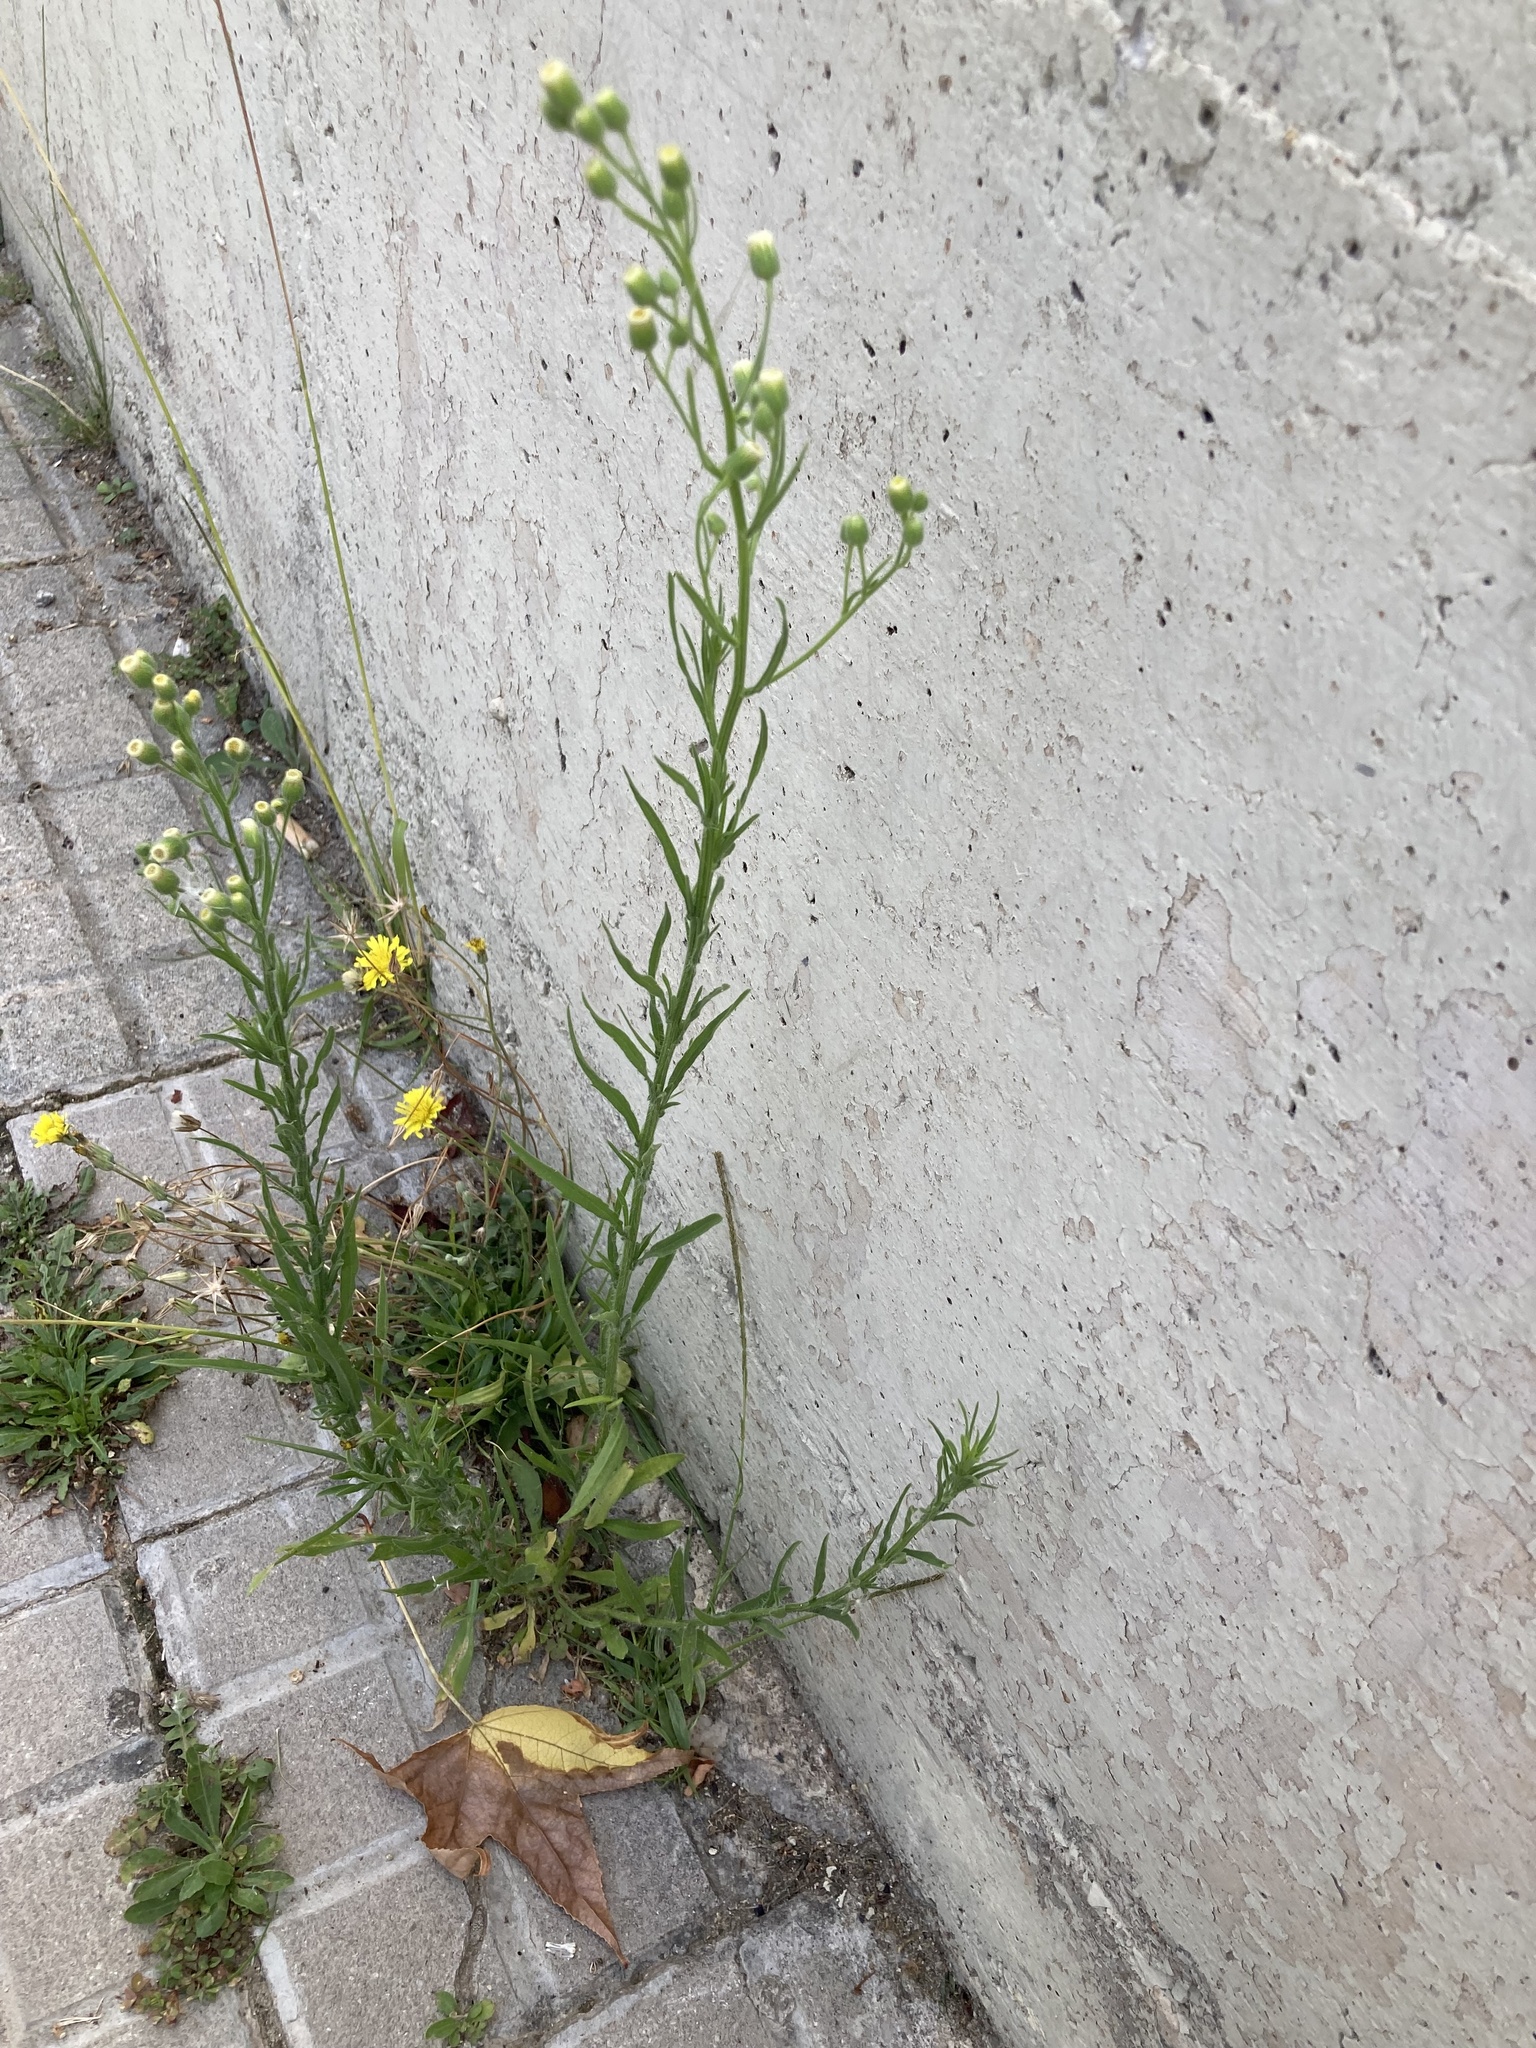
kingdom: Plantae
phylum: Tracheophyta
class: Magnoliopsida
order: Asterales
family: Asteraceae
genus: Erigeron
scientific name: Erigeron bonariensis
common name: Argentine fleabane
